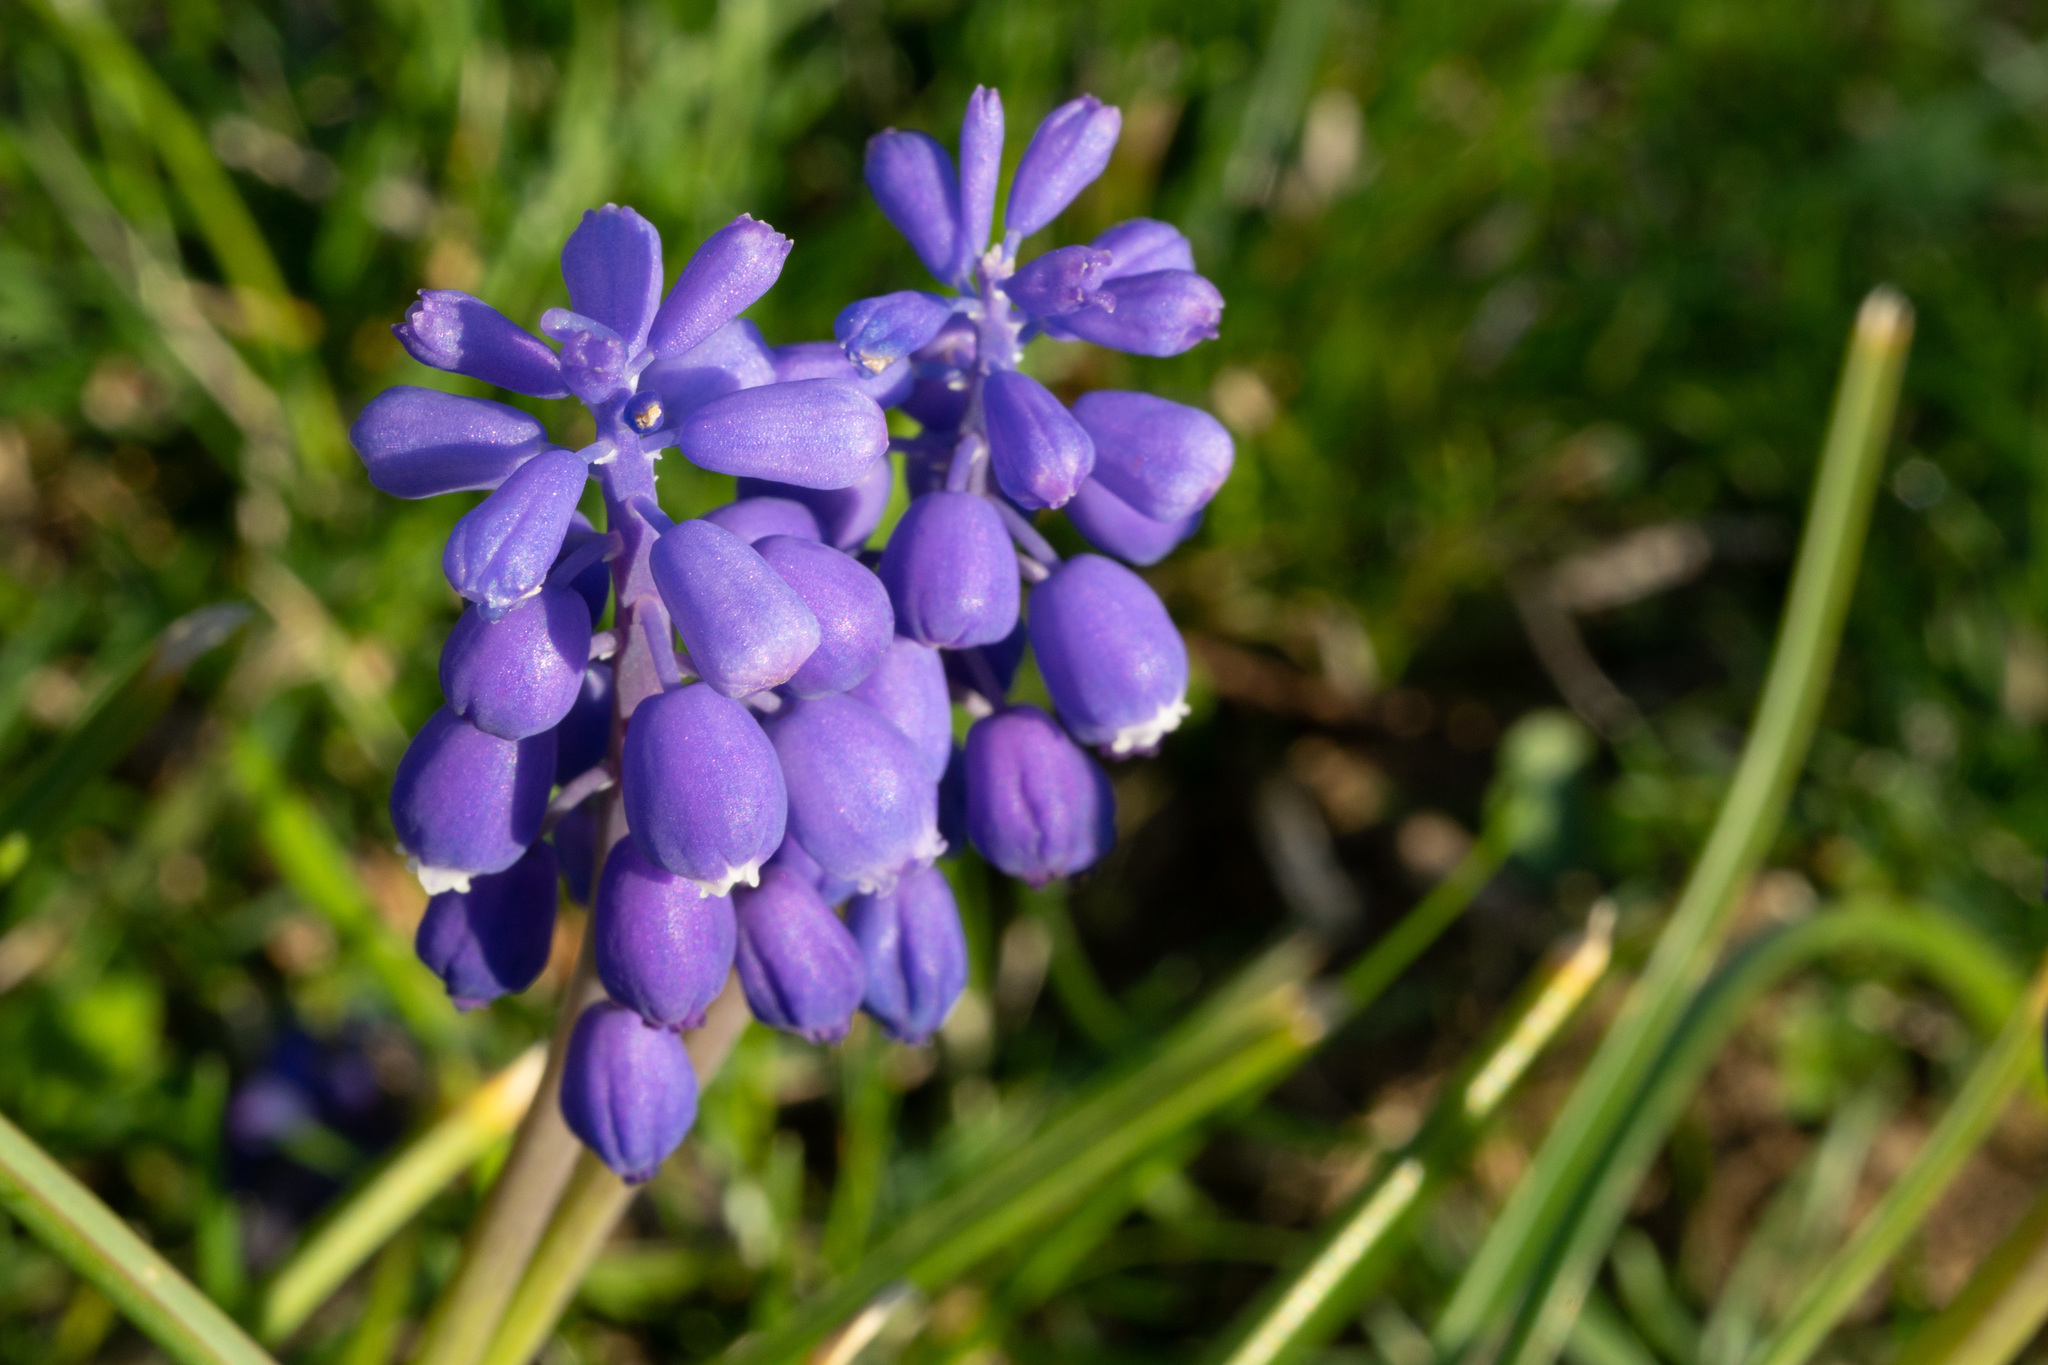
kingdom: Plantae
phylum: Tracheophyta
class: Liliopsida
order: Asparagales
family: Asparagaceae
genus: Muscari
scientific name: Muscari botryoides
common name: Compact grape-hyacinth
